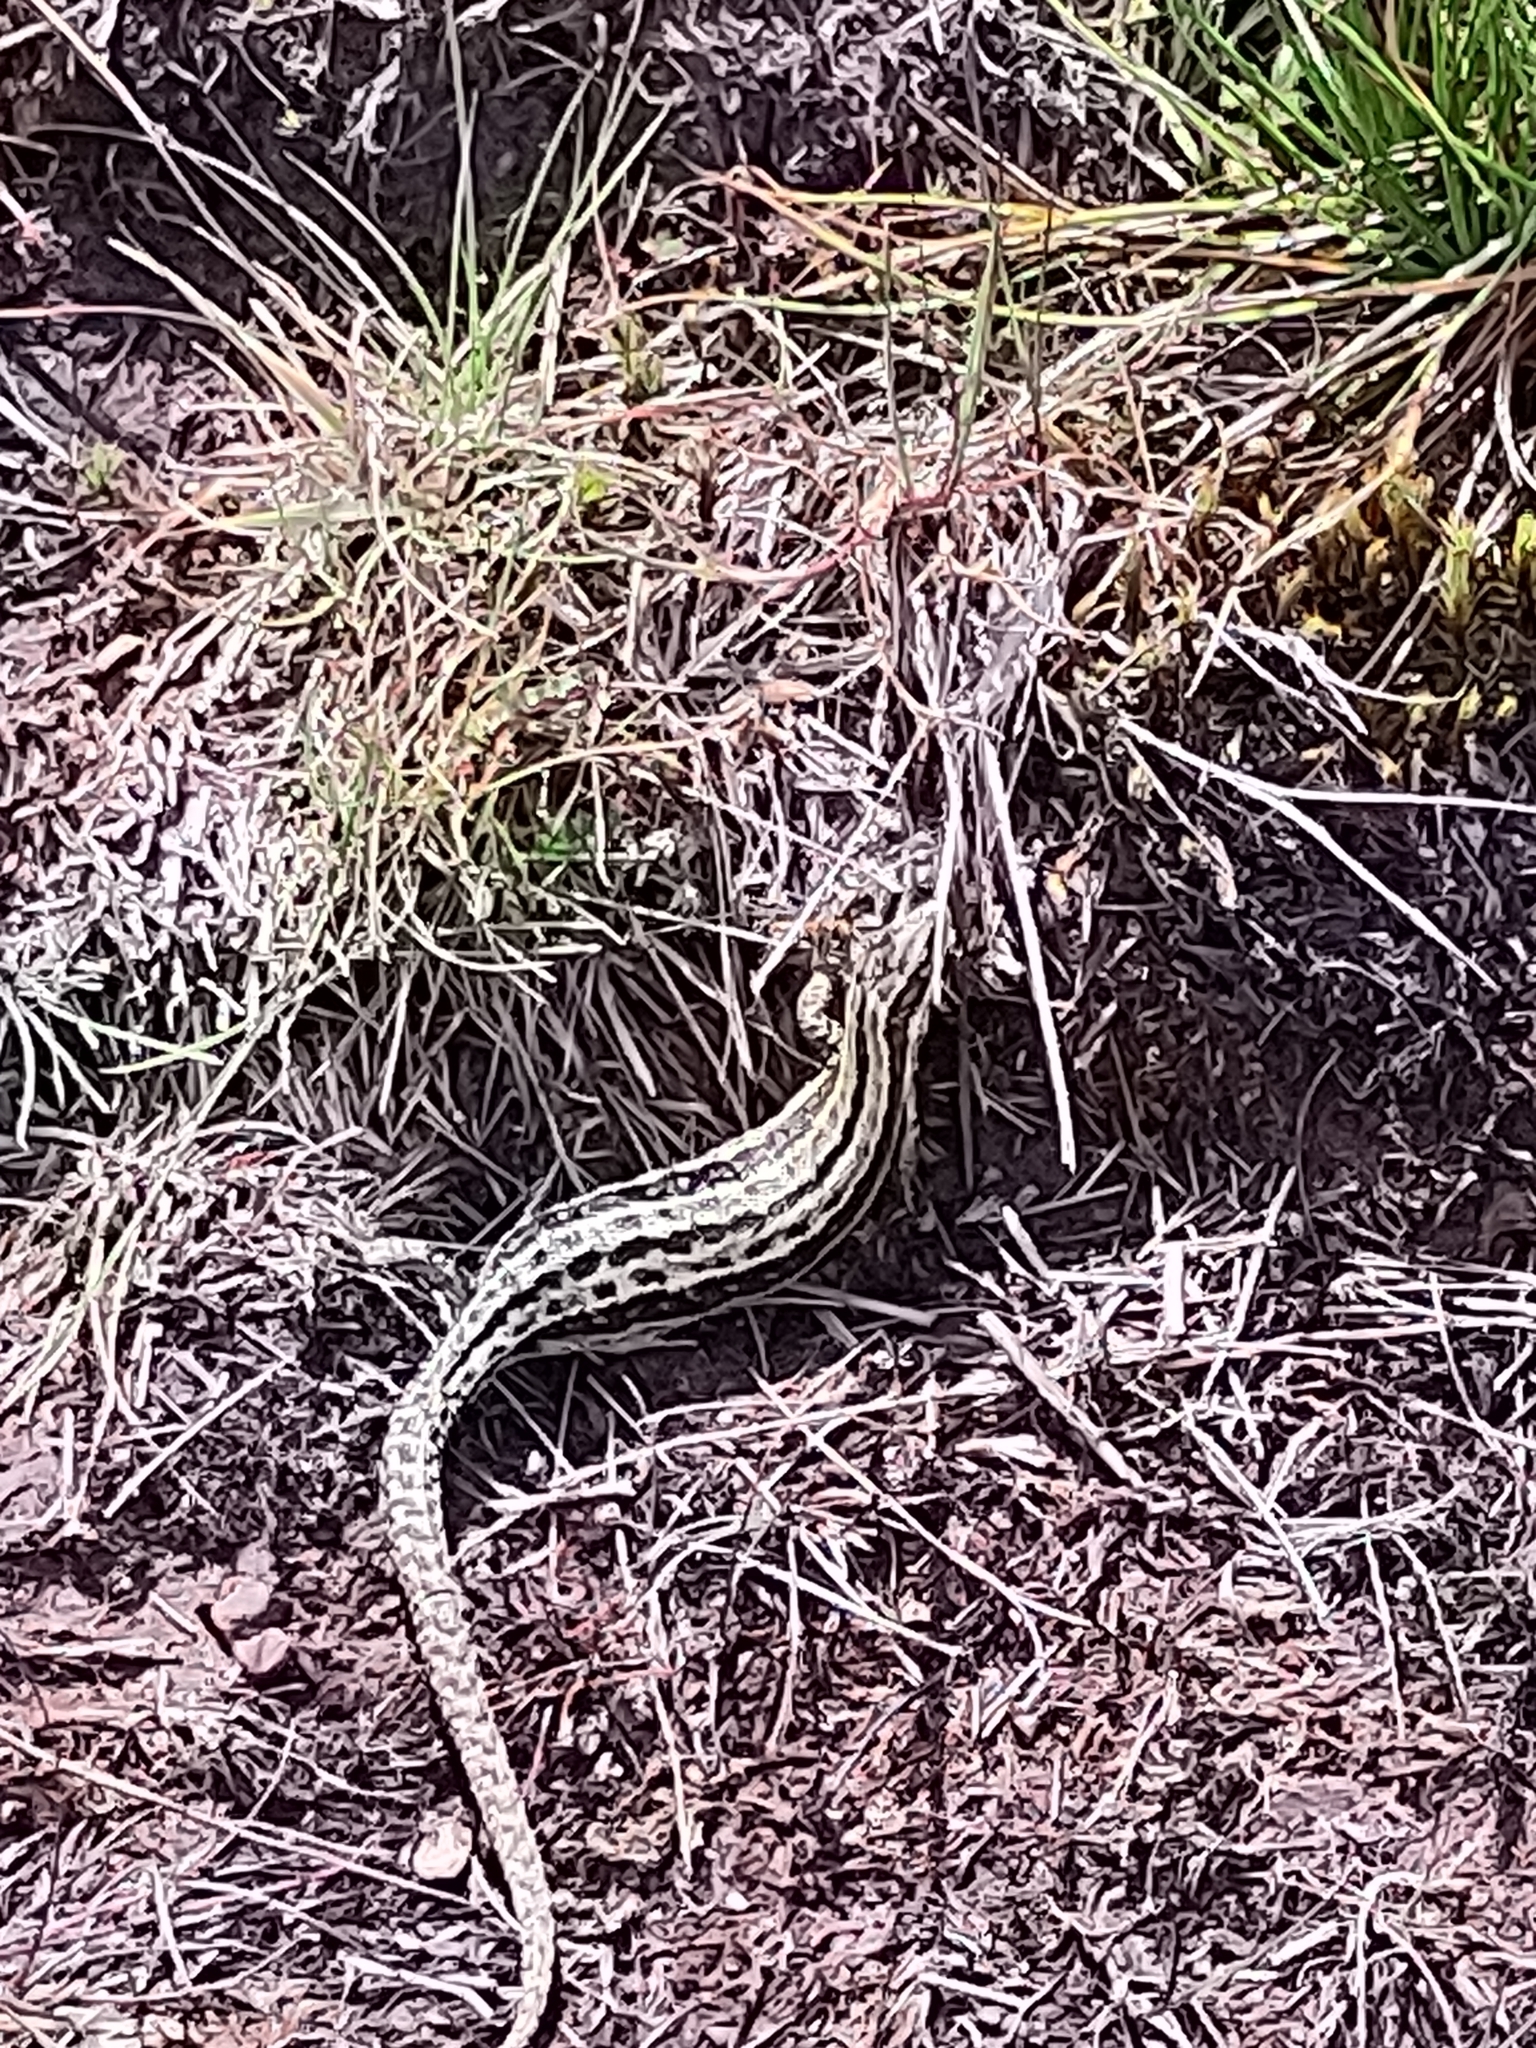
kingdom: Animalia
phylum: Chordata
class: Squamata
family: Lacertidae
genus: Zootoca
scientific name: Zootoca vivipara
